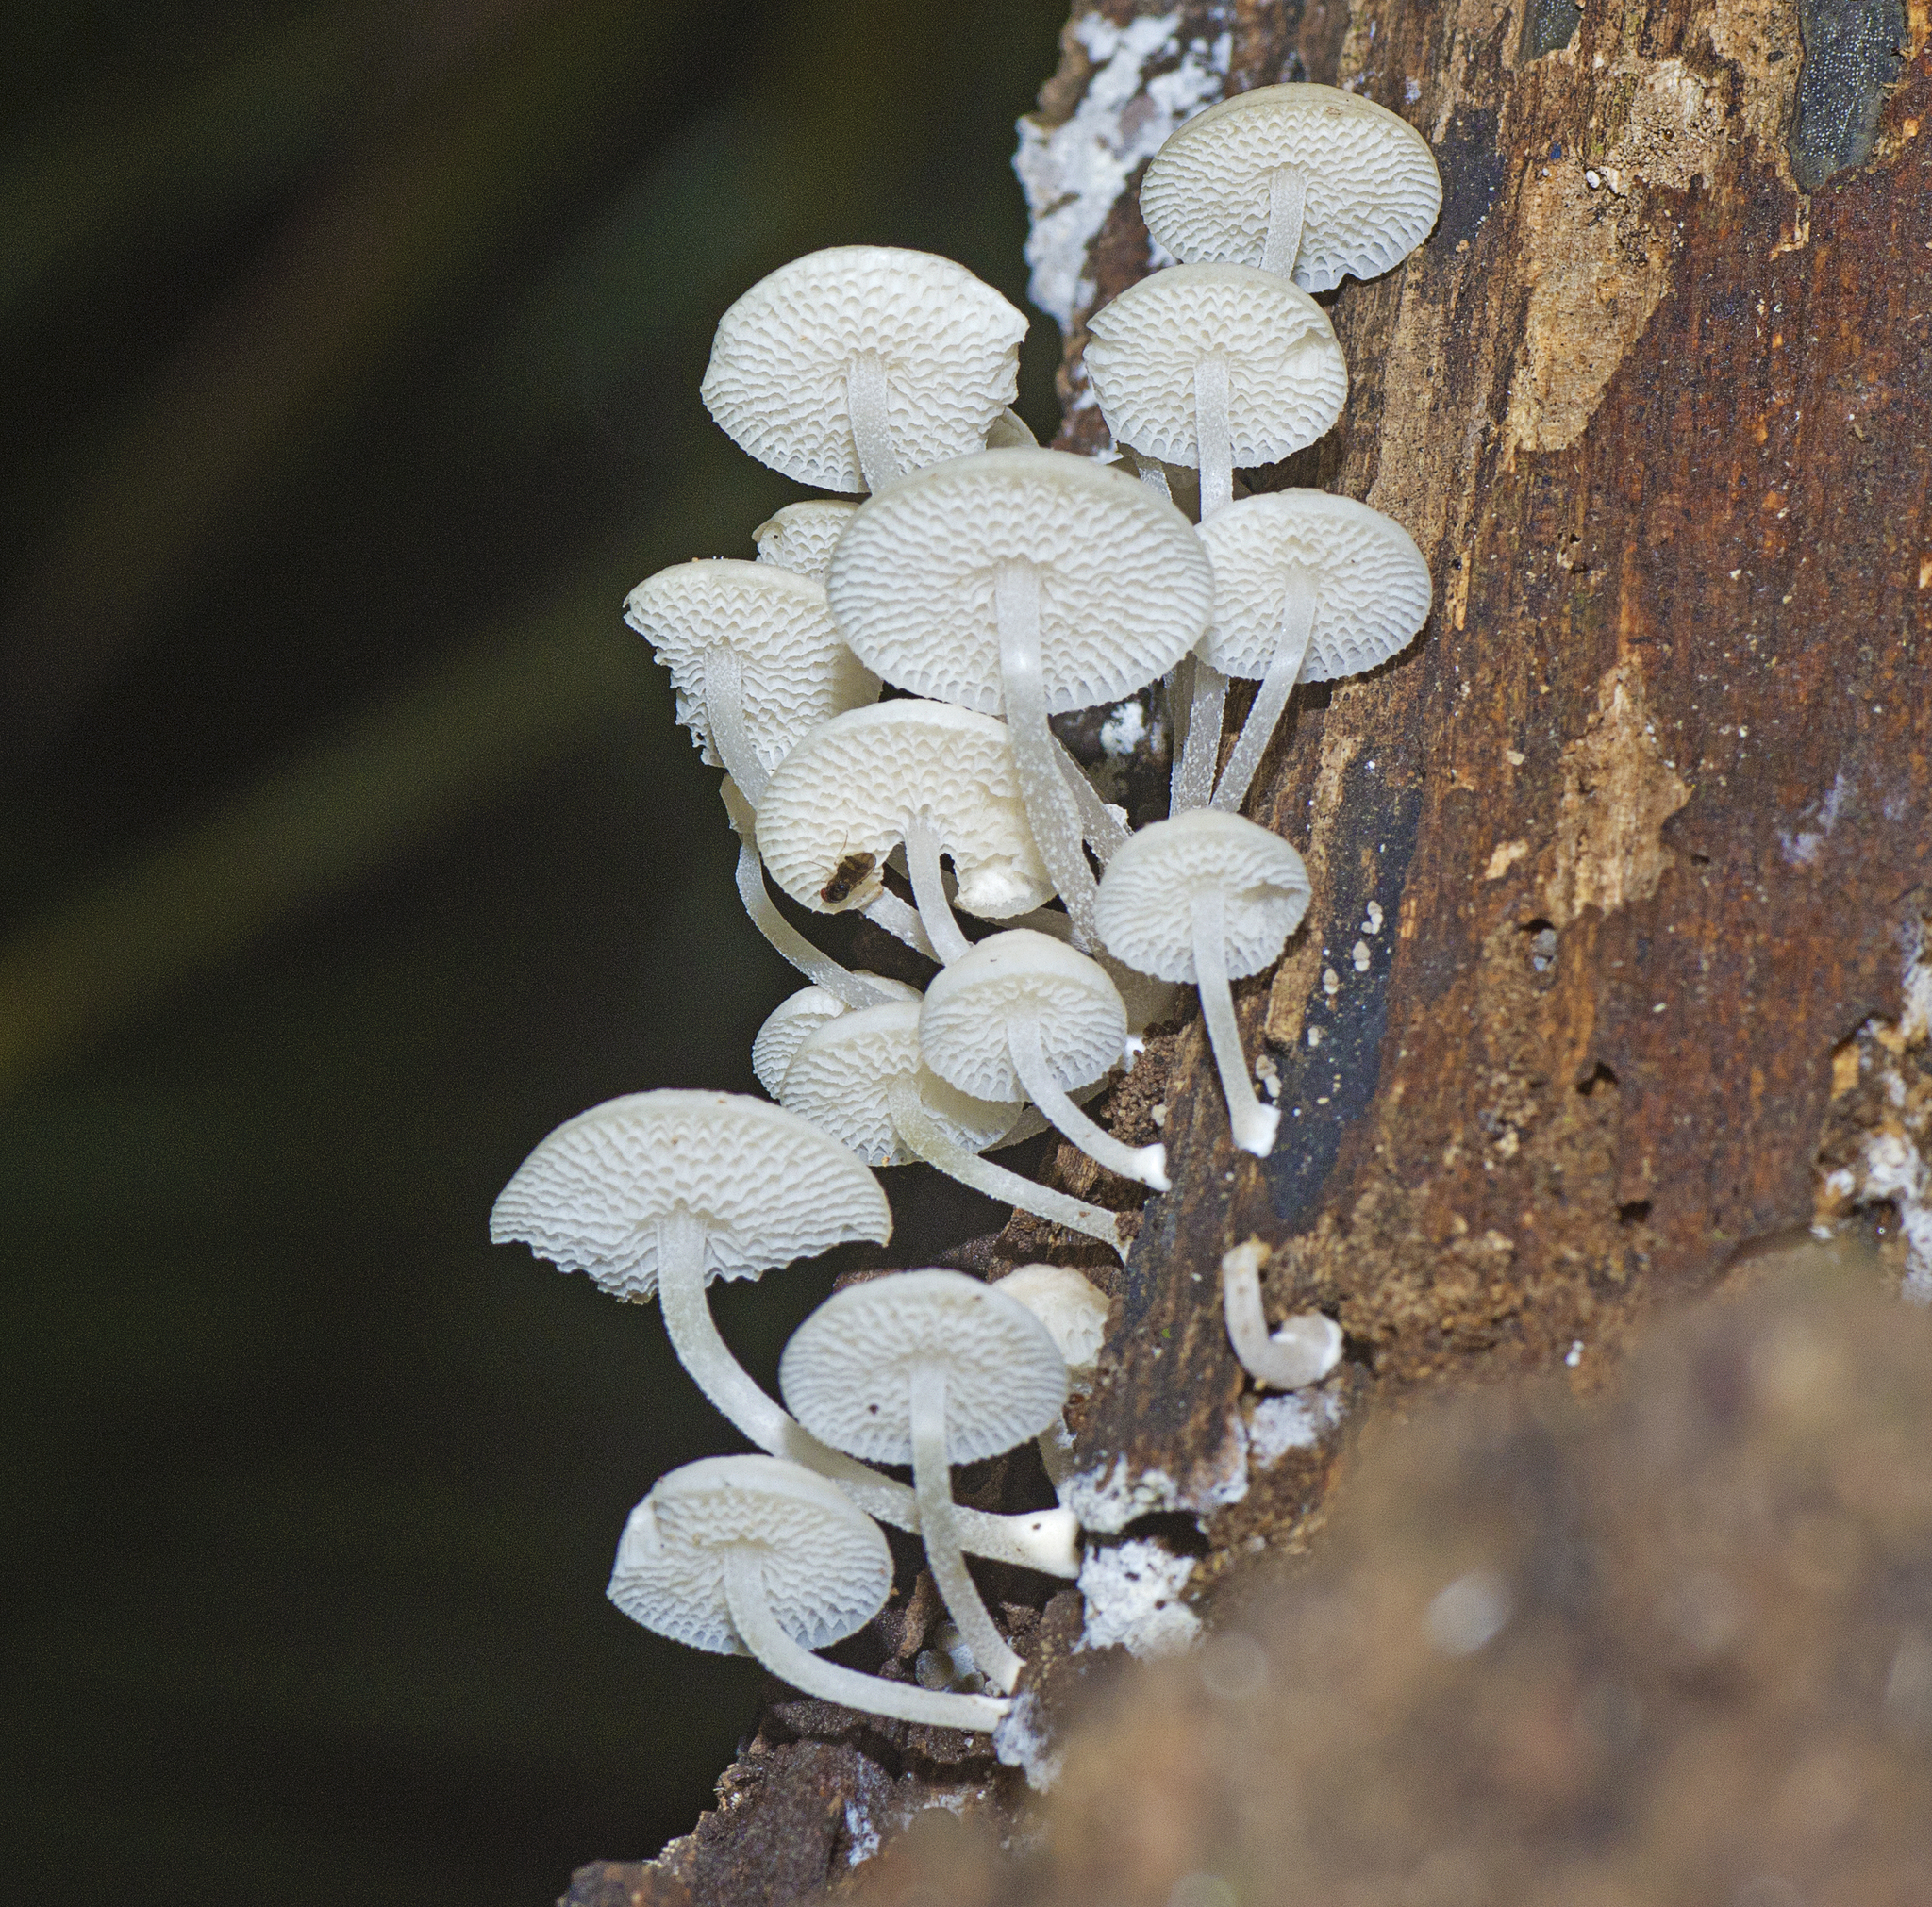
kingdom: Fungi
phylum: Basidiomycota
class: Agaricomycetes
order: Agaricales
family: Mycenaceae
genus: Filoboletus
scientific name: Filoboletus manipularis
